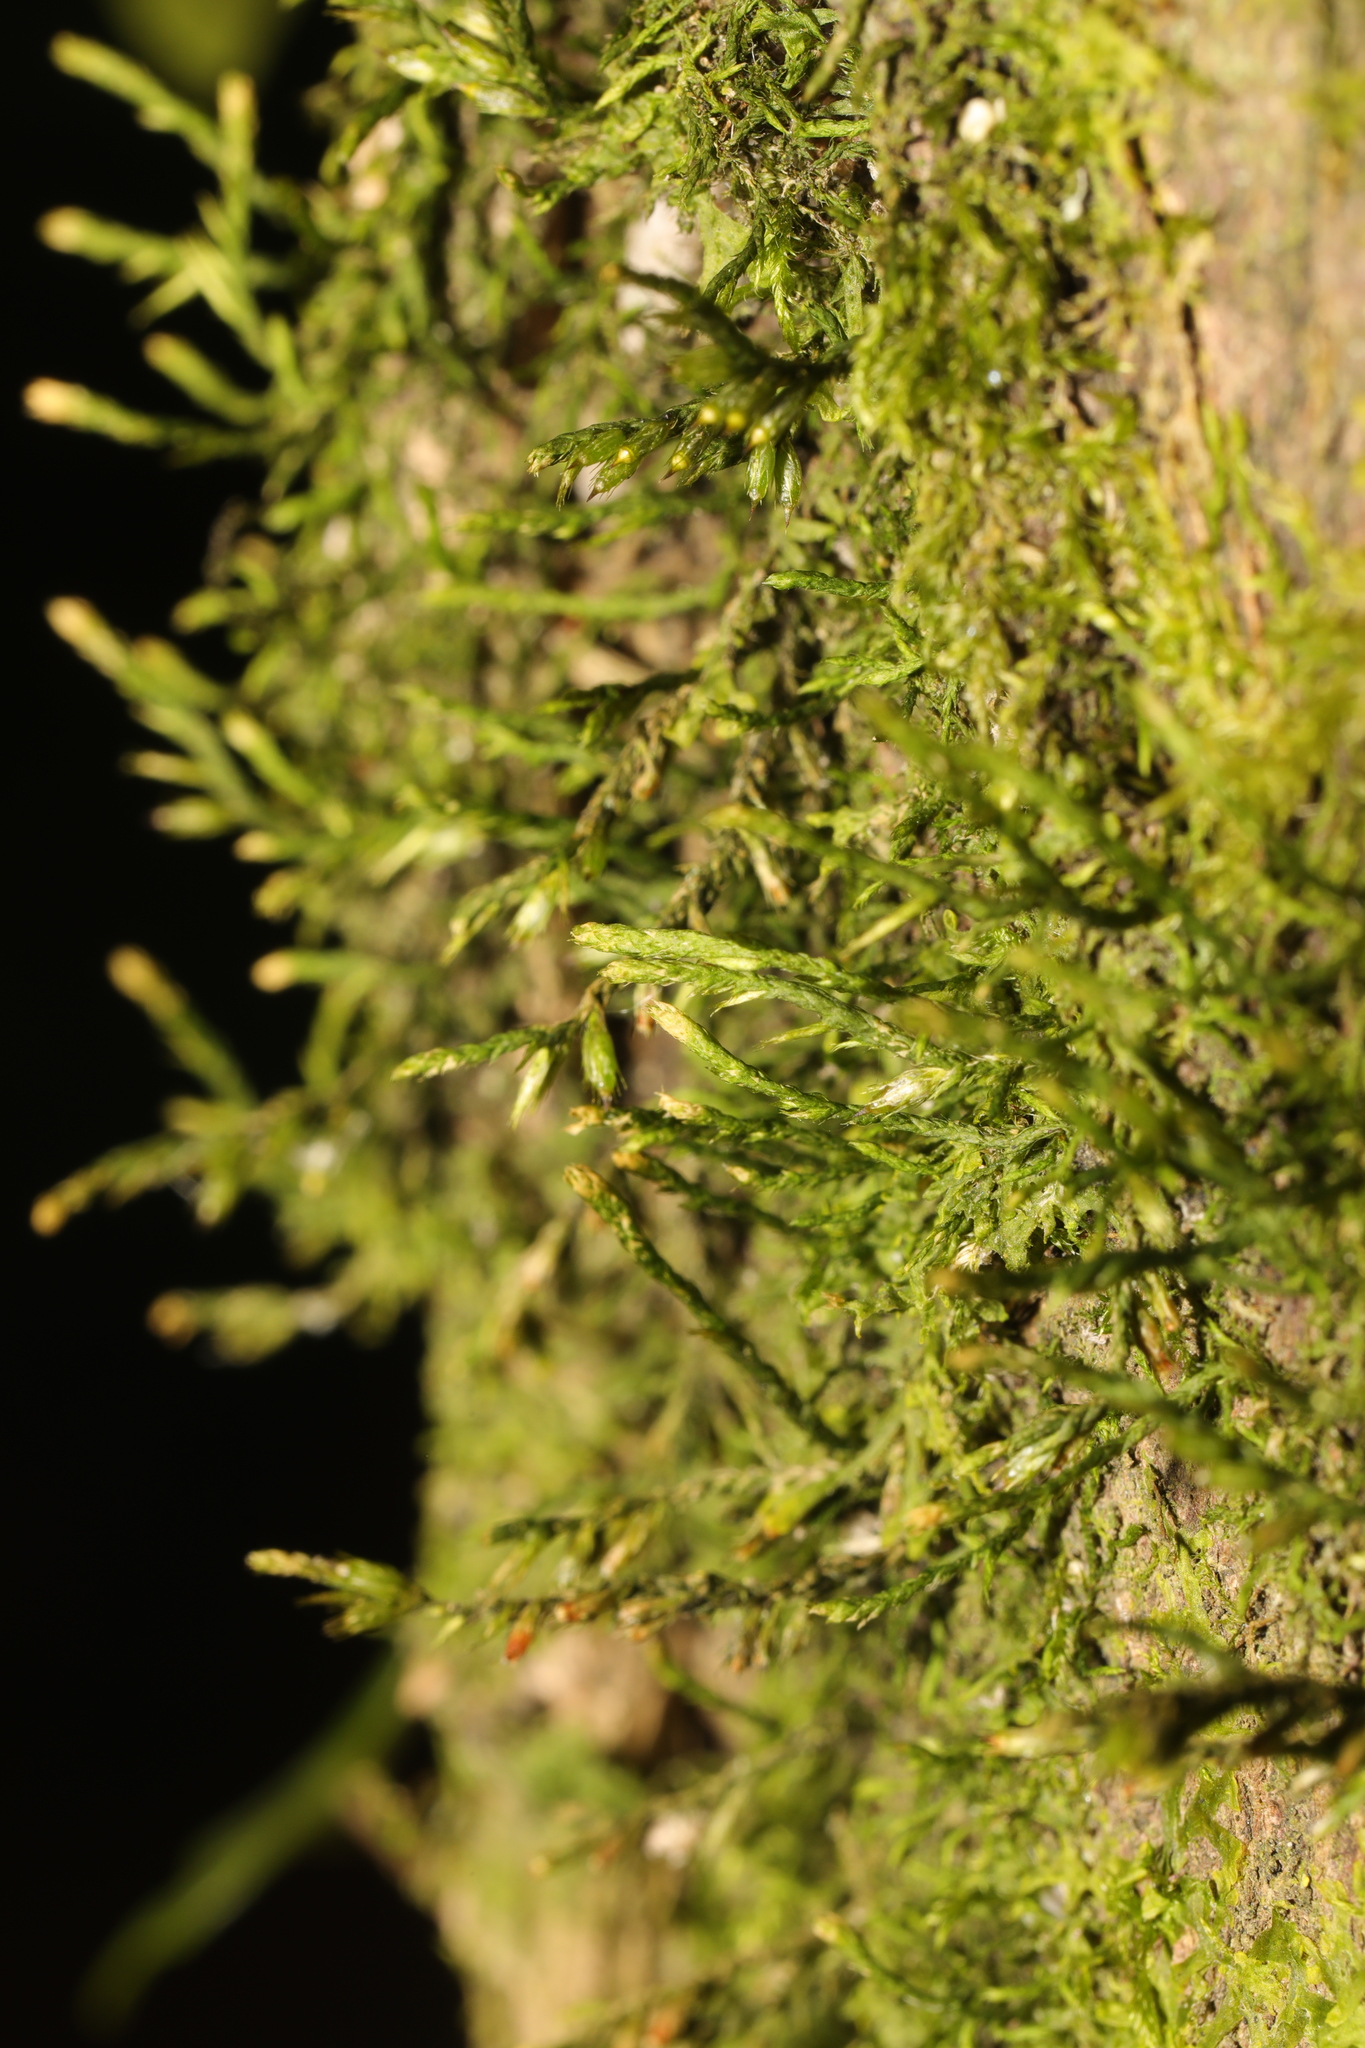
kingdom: Plantae
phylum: Bryophyta
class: Bryopsida
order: Hypnales
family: Cryphaeaceae
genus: Cryphaea
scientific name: Cryphaea heteromalla
